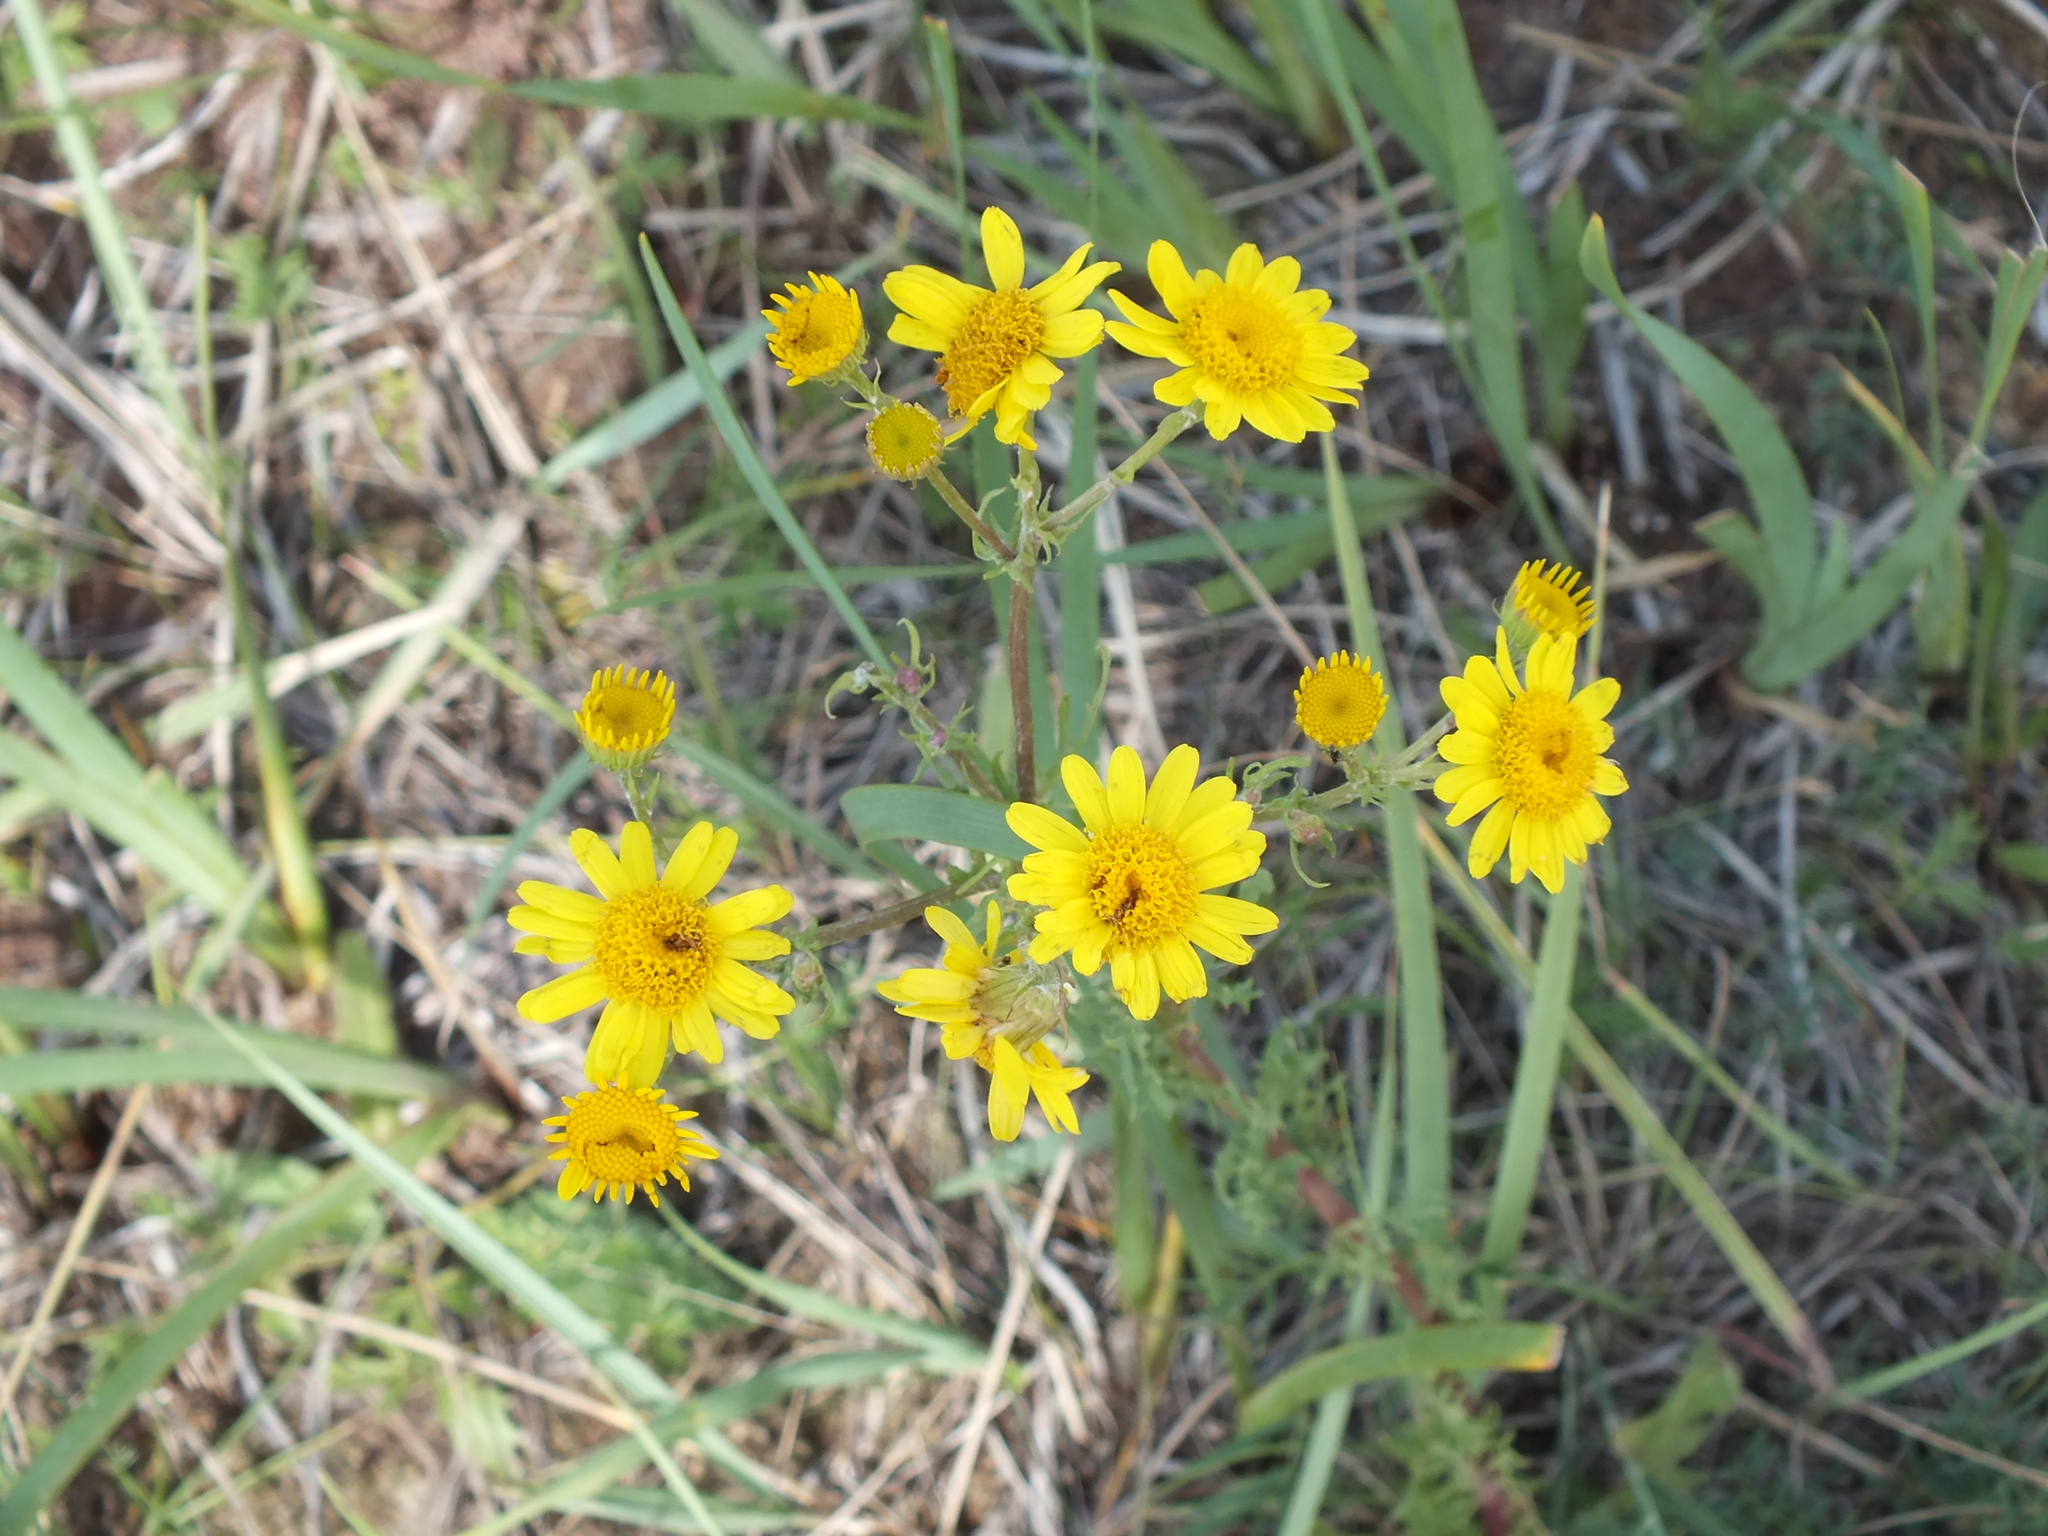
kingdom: Plantae
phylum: Tracheophyta
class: Magnoliopsida
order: Asterales
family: Asteraceae
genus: Jacobaea
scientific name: Jacobaea ambracea
